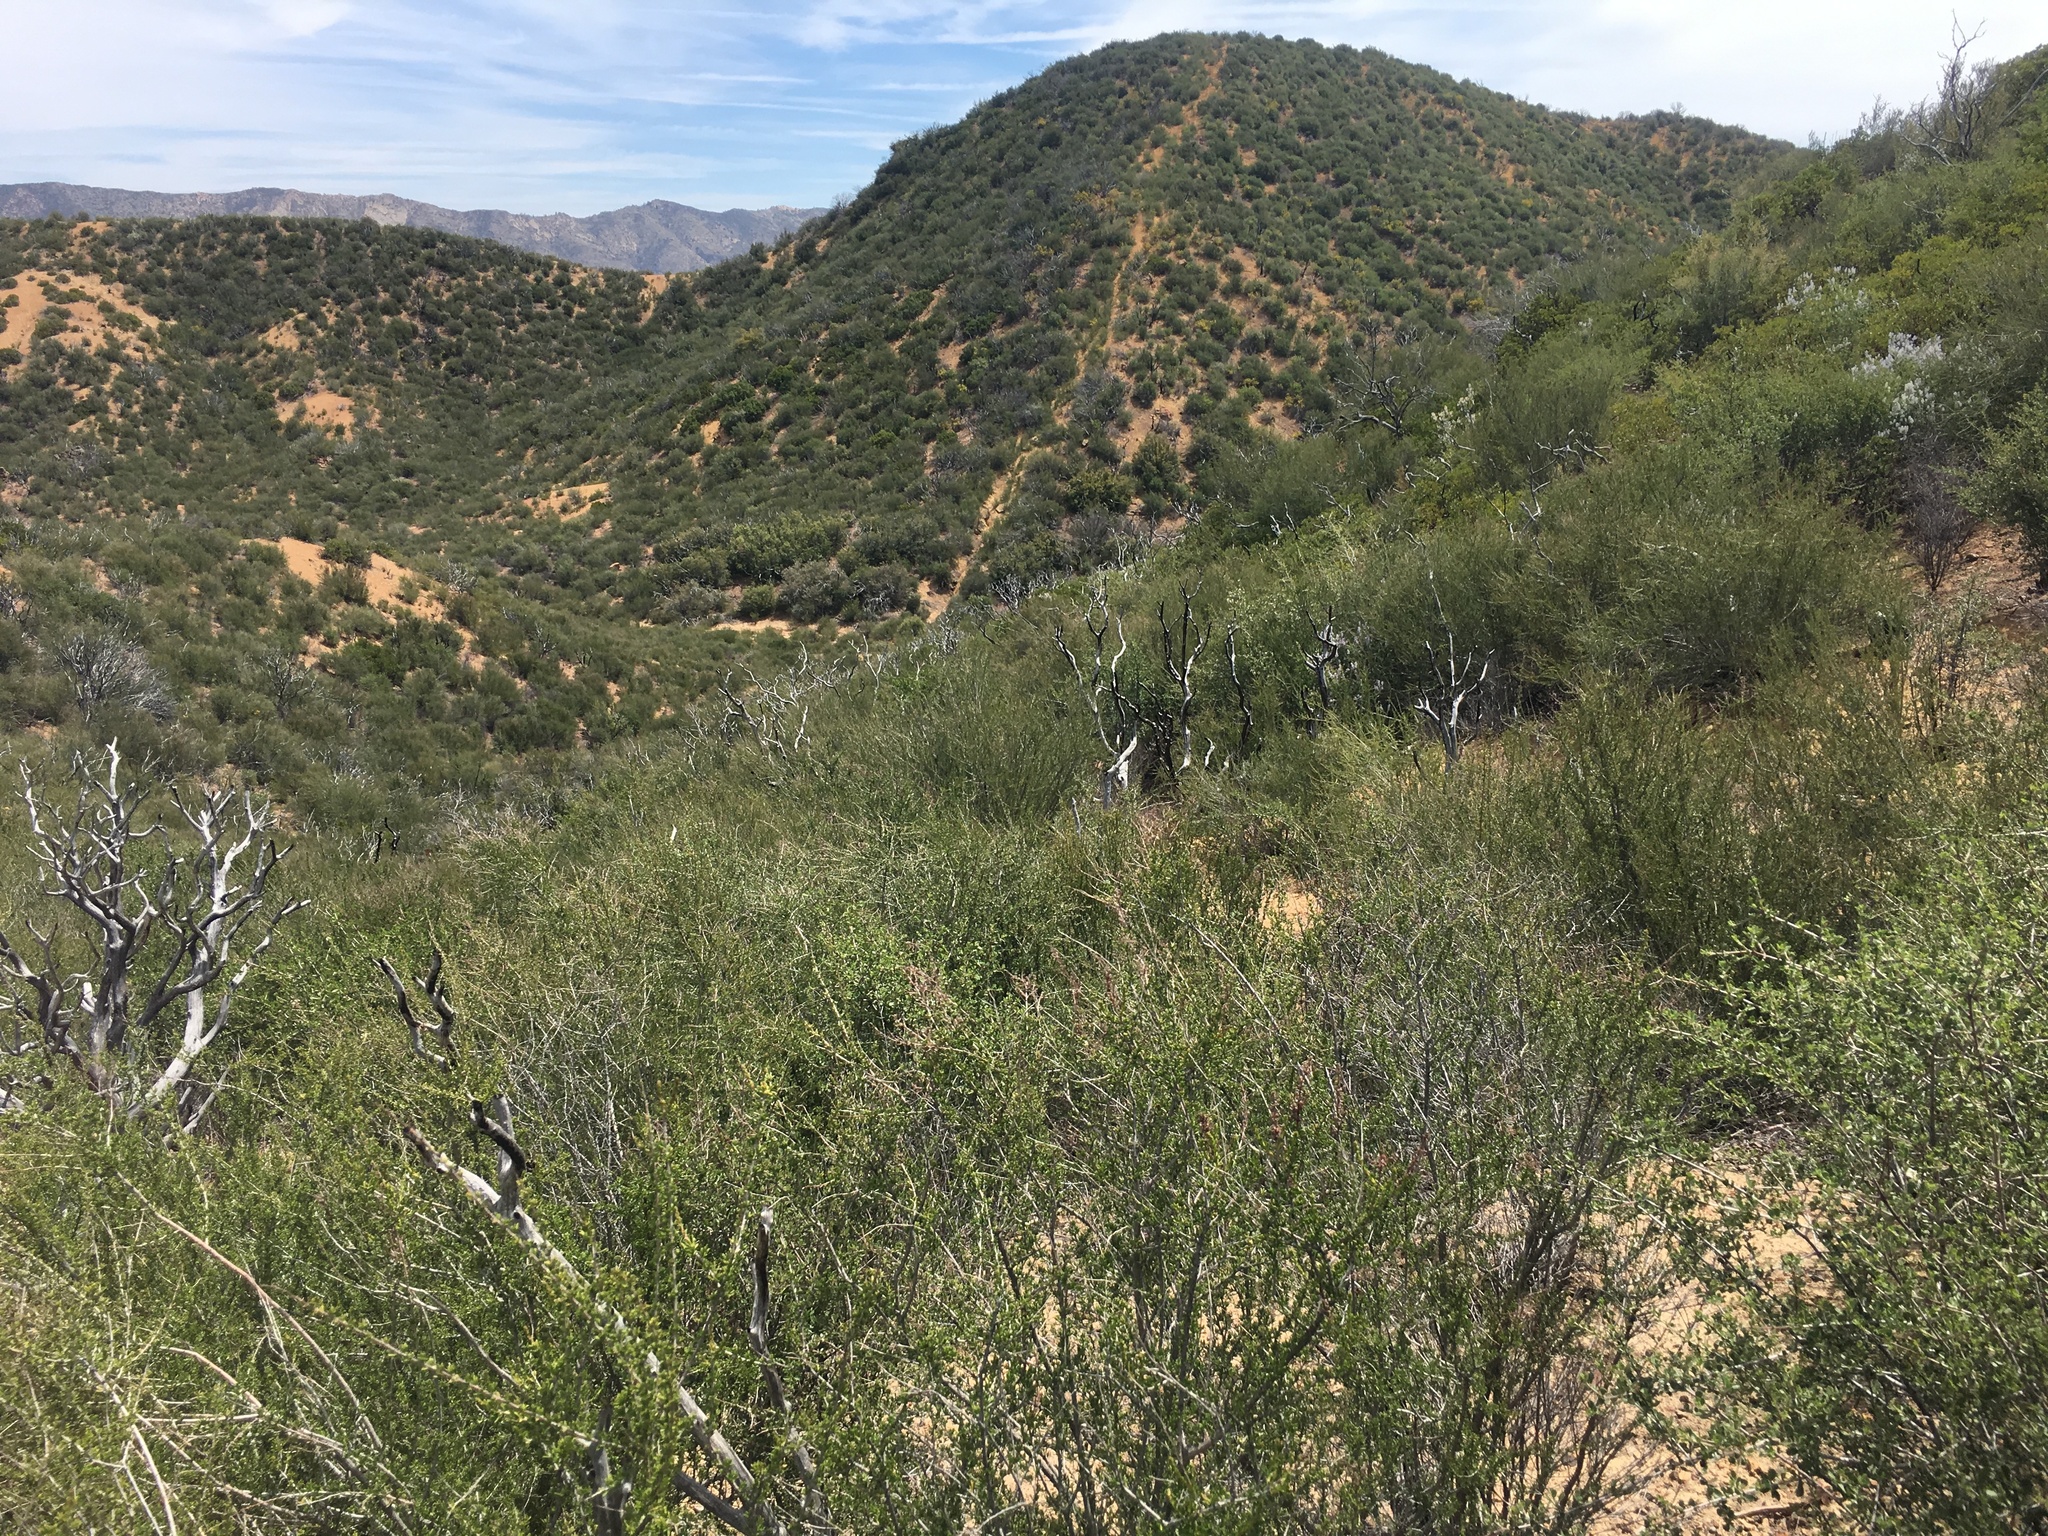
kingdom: Plantae
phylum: Tracheophyta
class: Magnoliopsida
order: Rosales
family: Rosaceae
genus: Adenostoma
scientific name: Adenostoma fasciculatum
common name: Chamise
